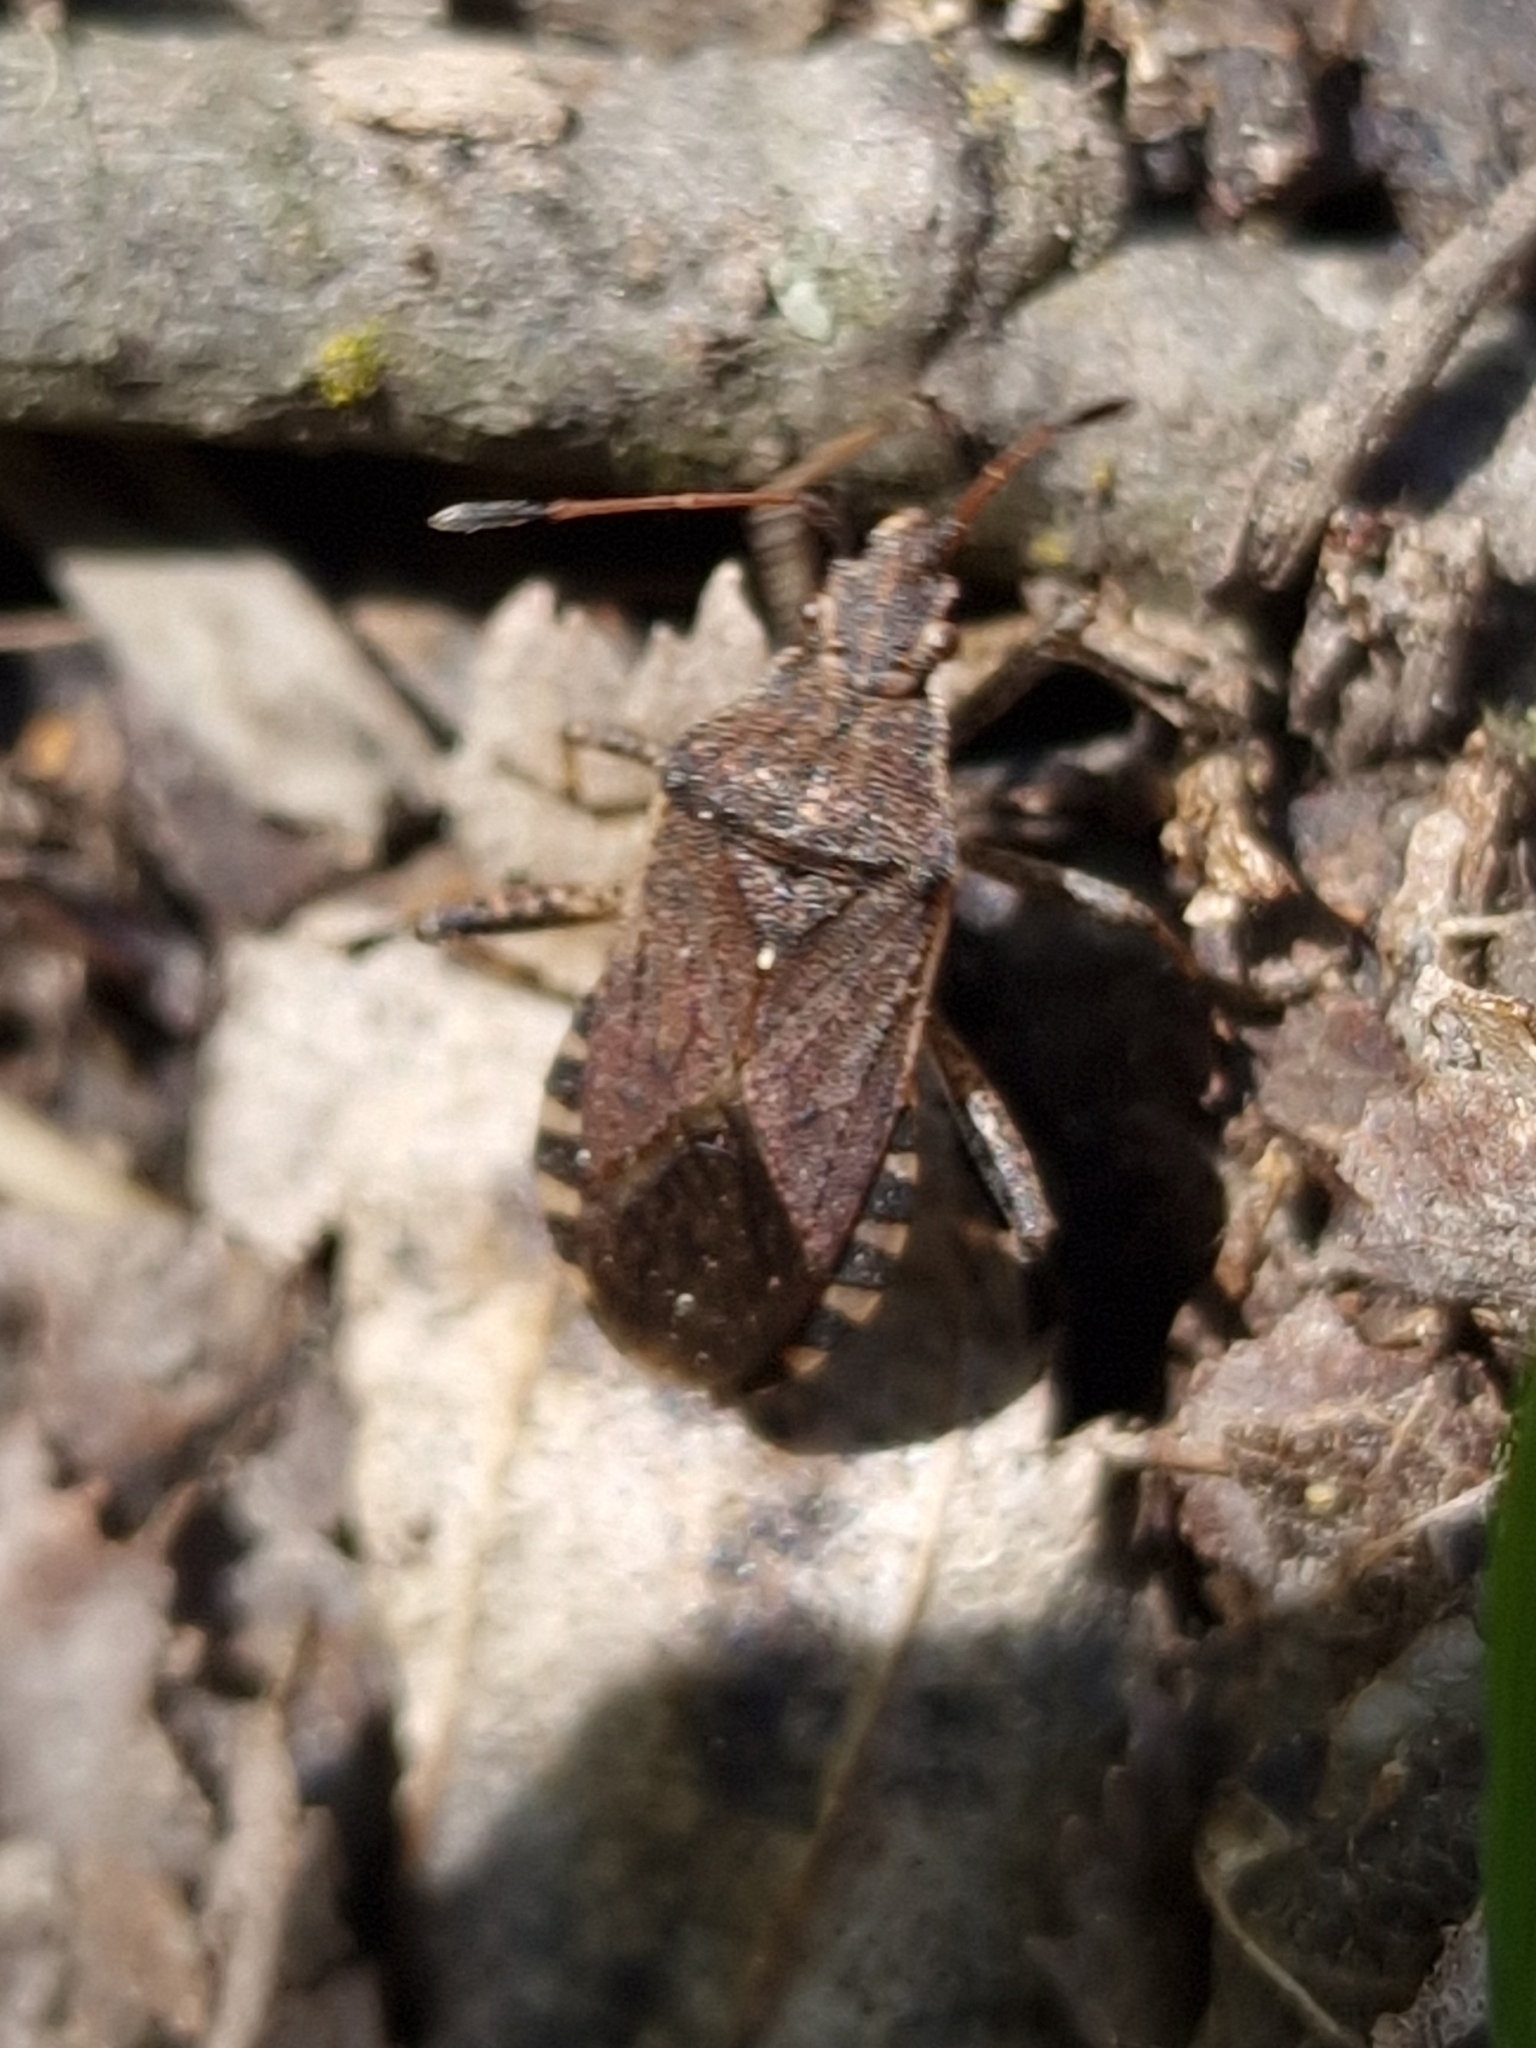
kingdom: Animalia
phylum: Arthropoda
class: Insecta
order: Hemiptera
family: Coreidae
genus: Ceraleptus
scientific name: Ceraleptus gracilicornis
